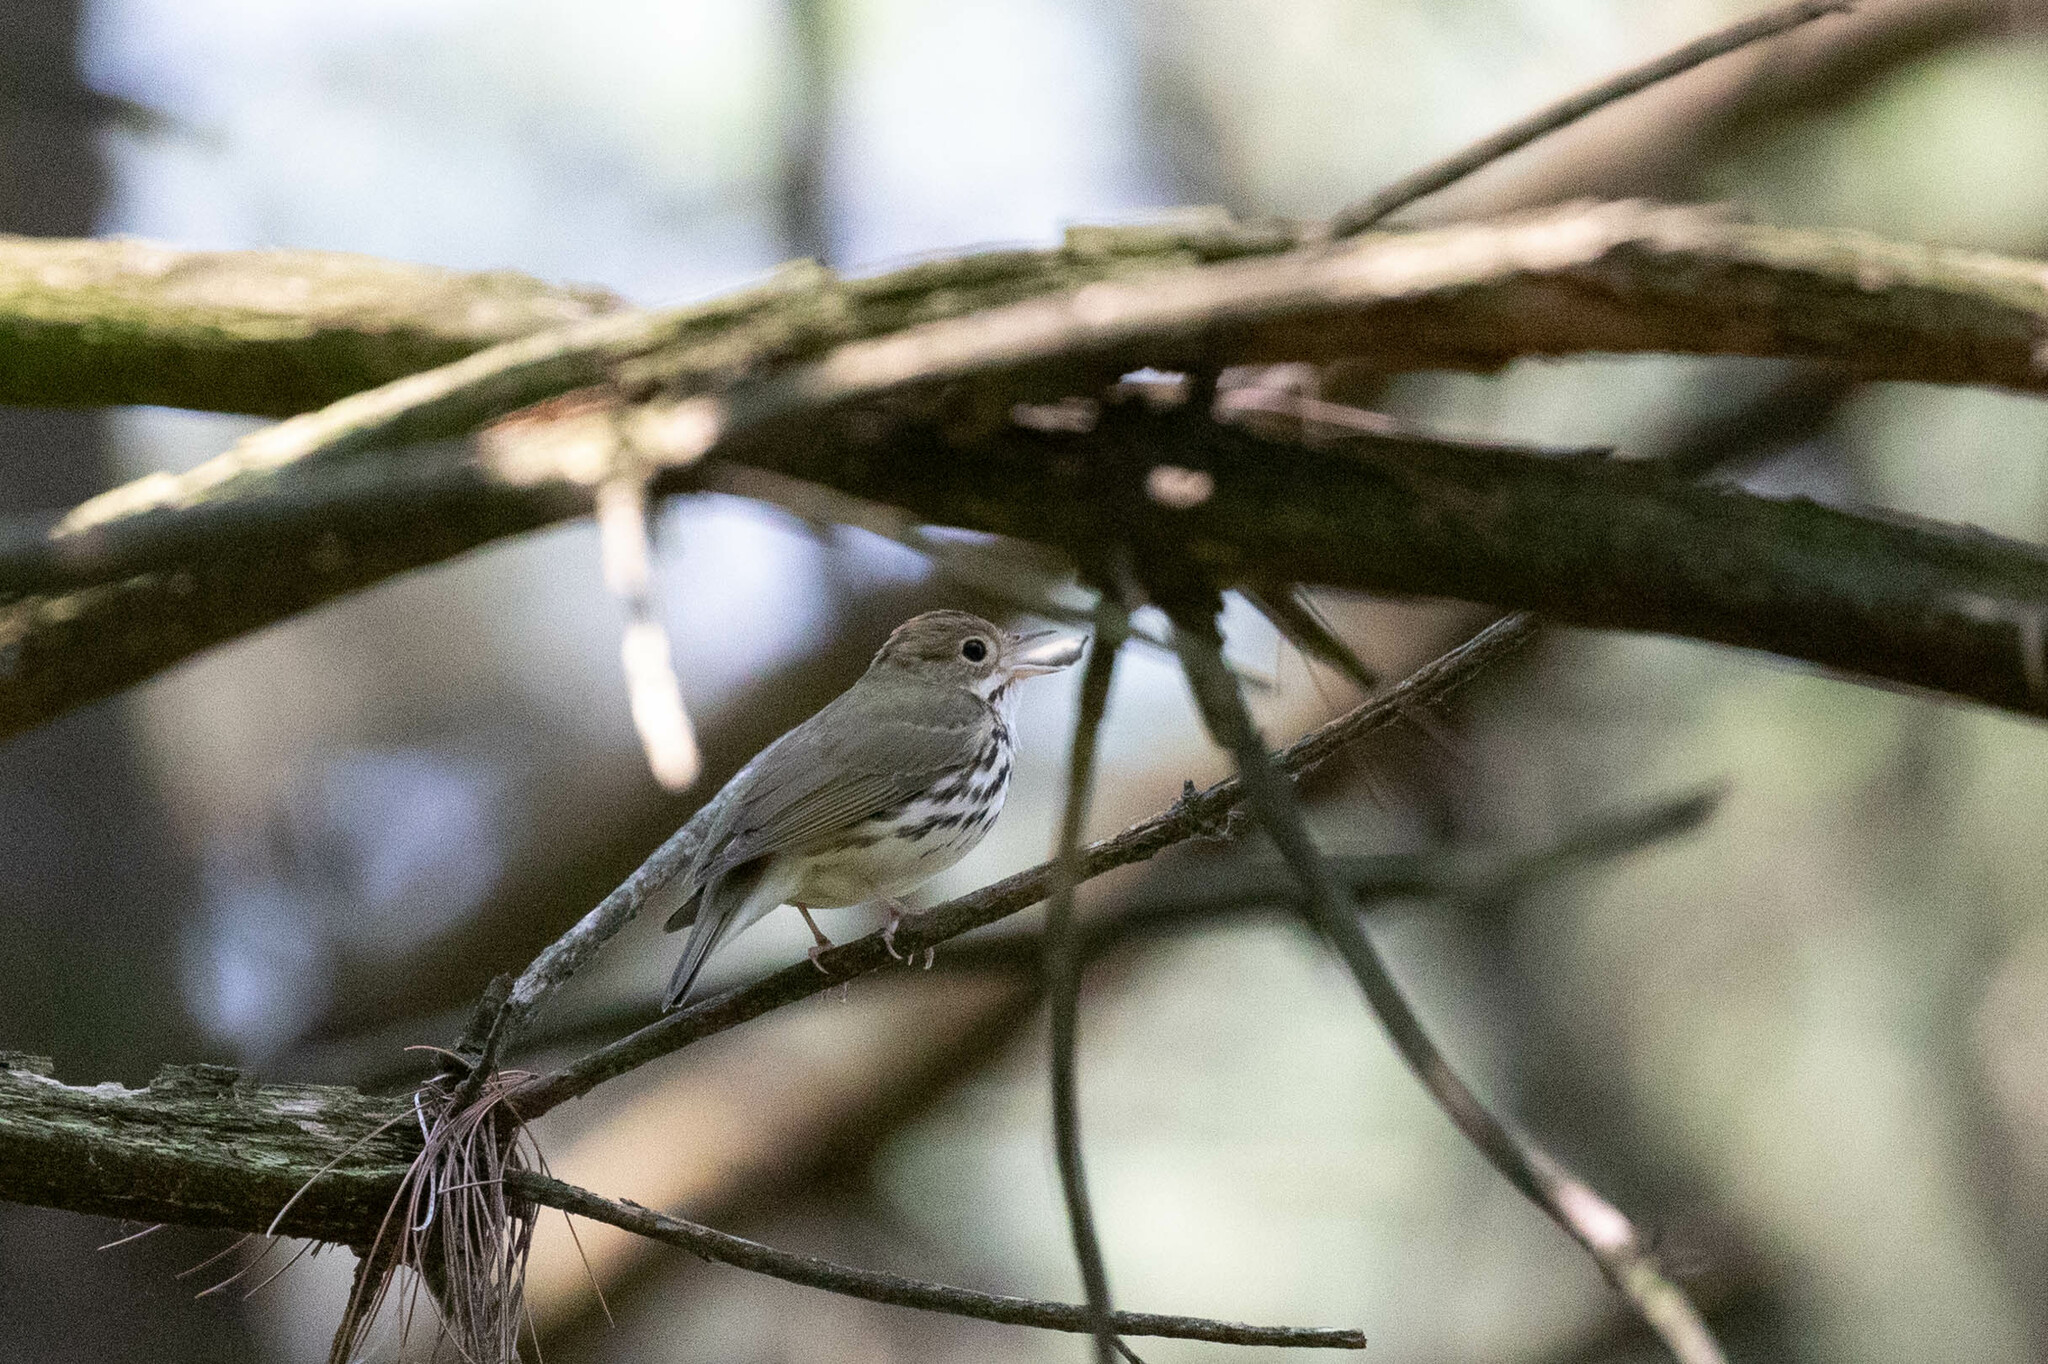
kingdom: Animalia
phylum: Chordata
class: Aves
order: Passeriformes
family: Parulidae
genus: Seiurus
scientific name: Seiurus aurocapilla
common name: Ovenbird
